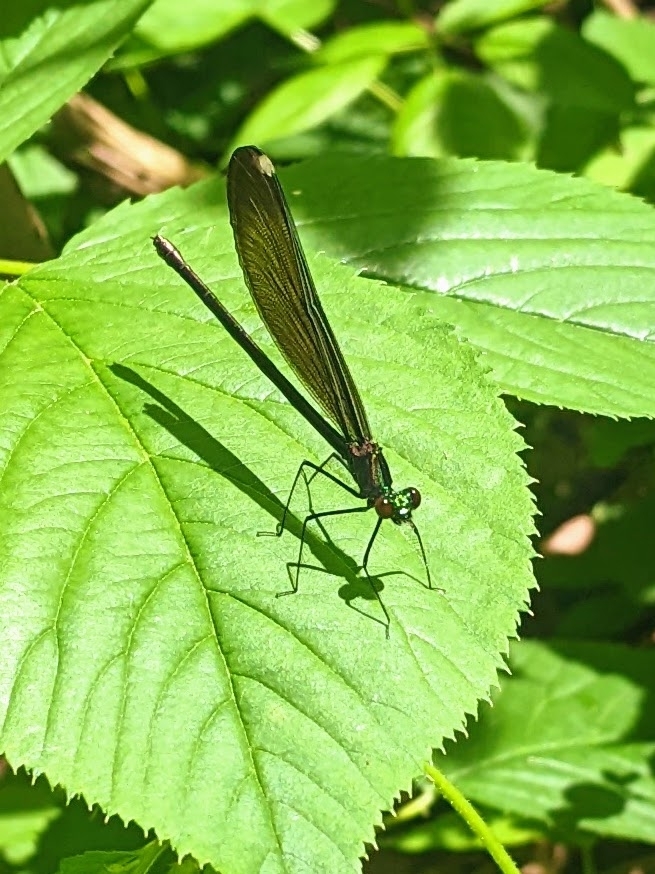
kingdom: Animalia
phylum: Arthropoda
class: Insecta
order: Odonata
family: Calopterygidae
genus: Calopteryx
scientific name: Calopteryx maculata
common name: Ebony jewelwing
